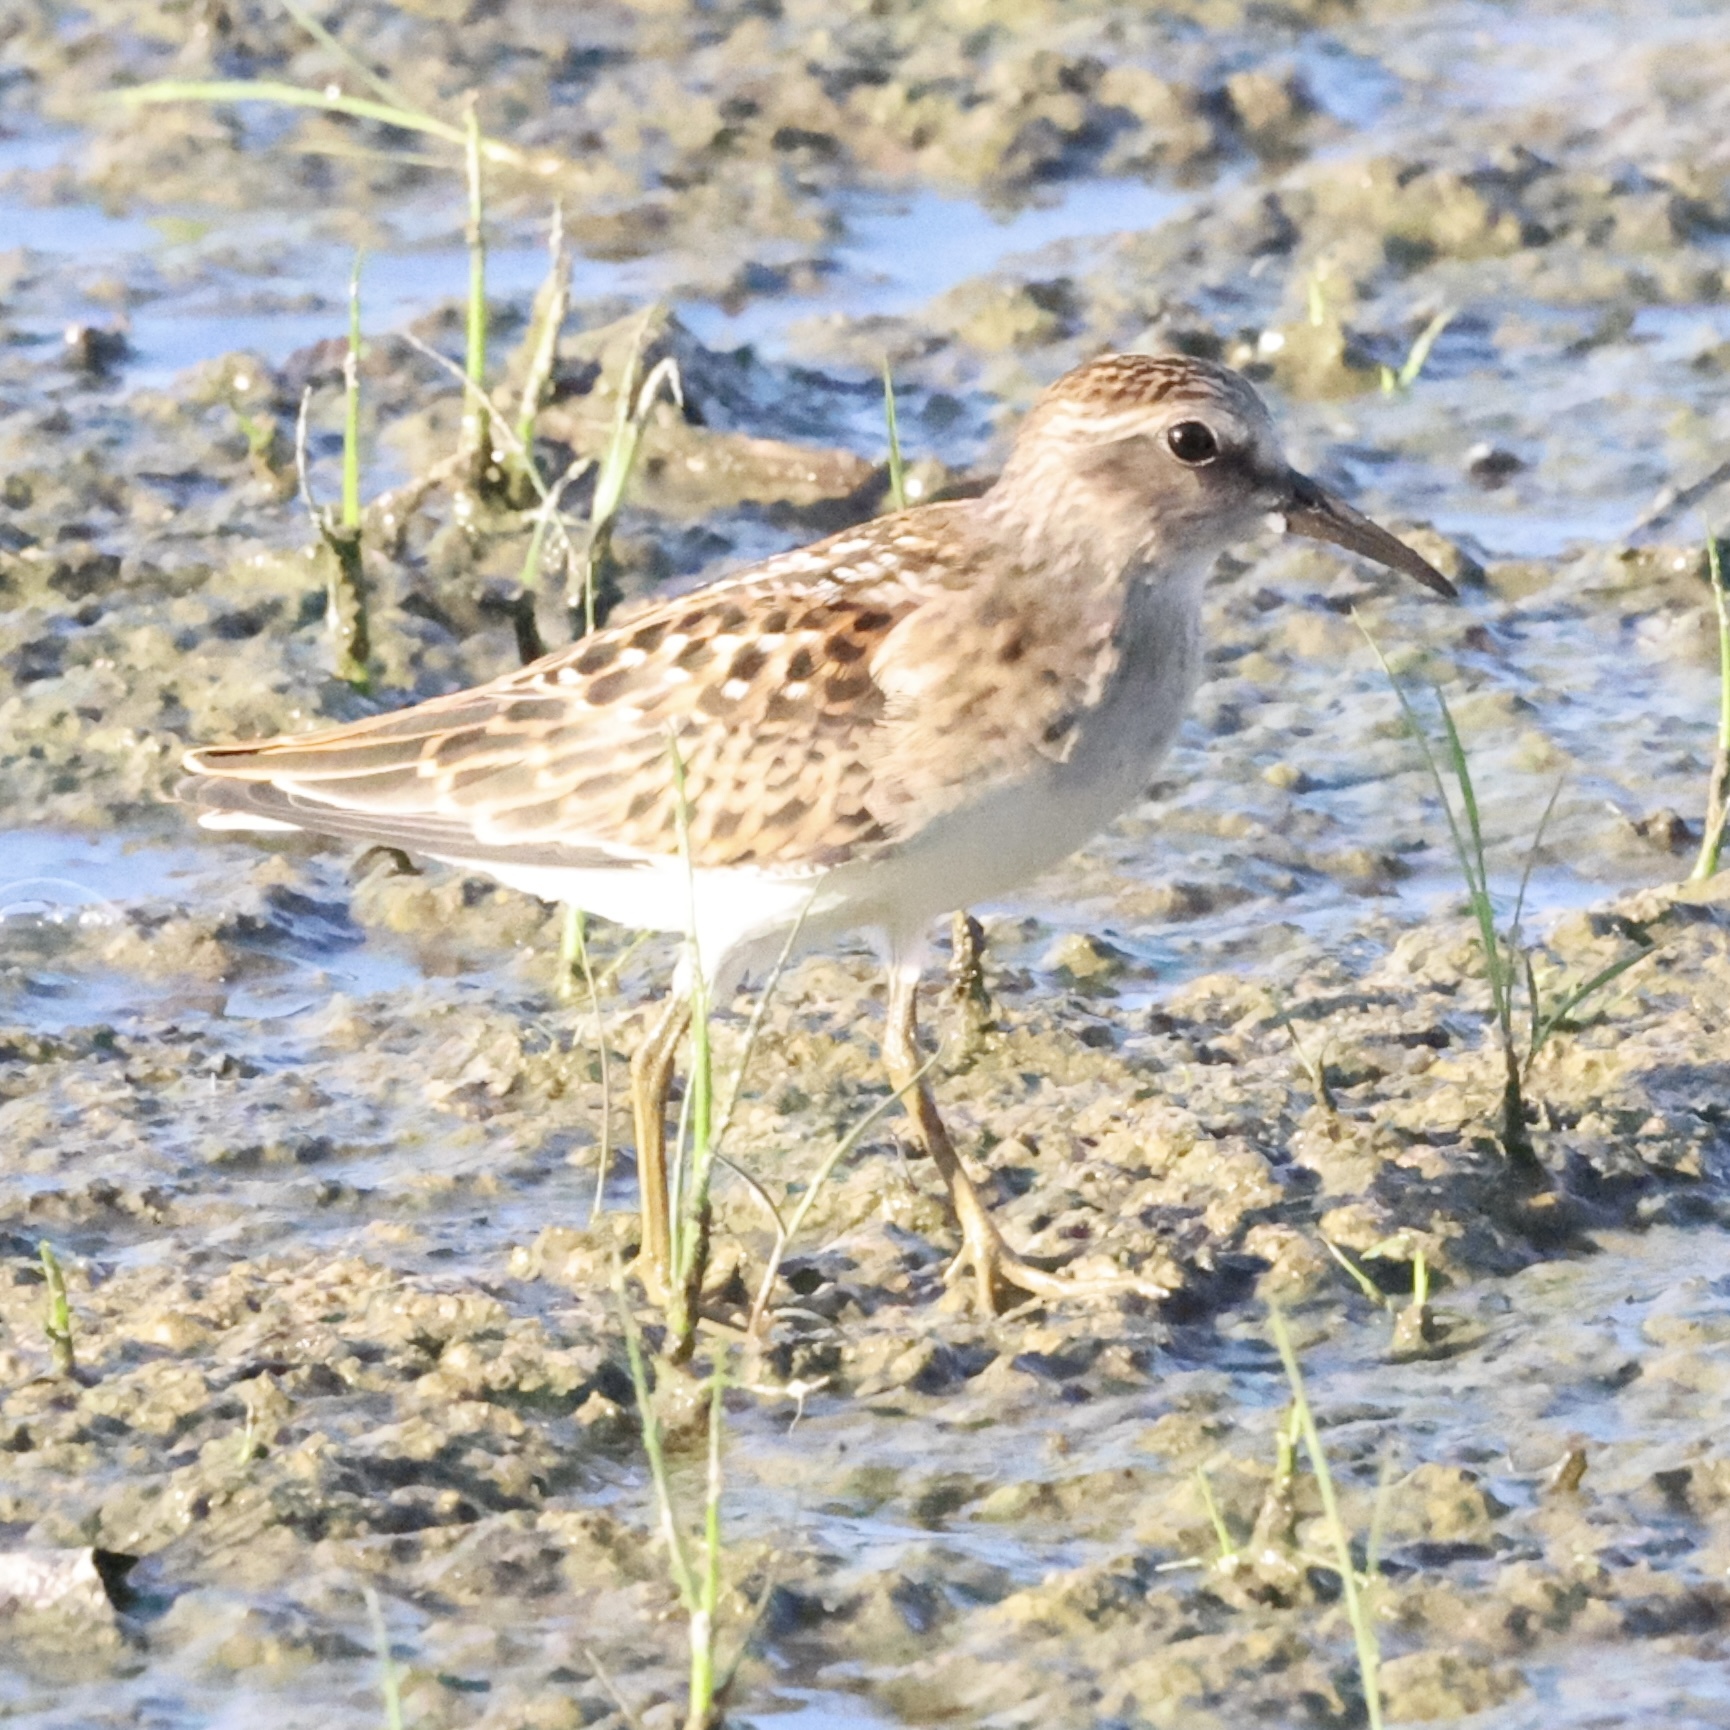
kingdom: Animalia
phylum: Chordata
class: Aves
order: Charadriiformes
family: Scolopacidae
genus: Calidris
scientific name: Calidris minutilla
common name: Least sandpiper
